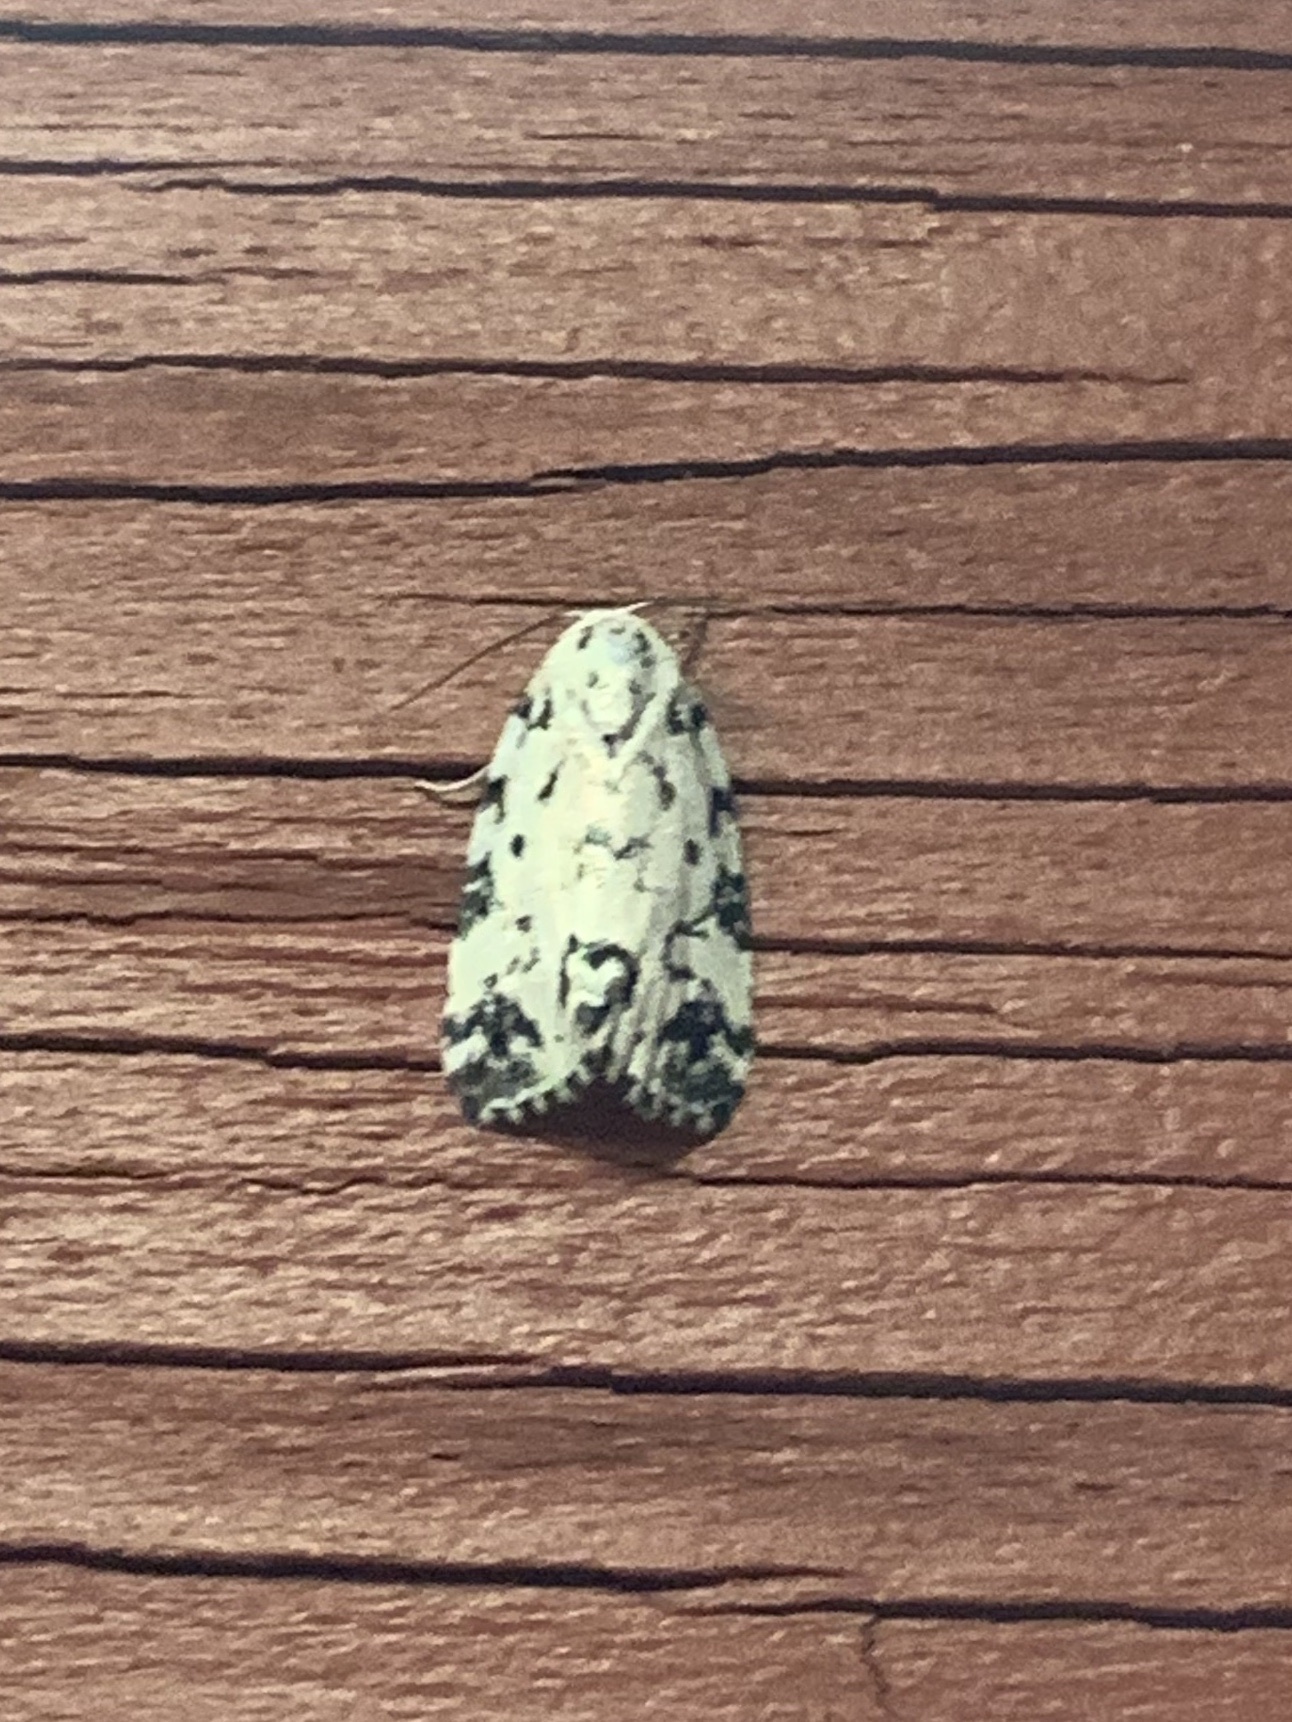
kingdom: Animalia
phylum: Arthropoda
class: Insecta
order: Lepidoptera
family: Noctuidae
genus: Polygrammate
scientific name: Polygrammate hebraeicum
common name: Hebrew moth
